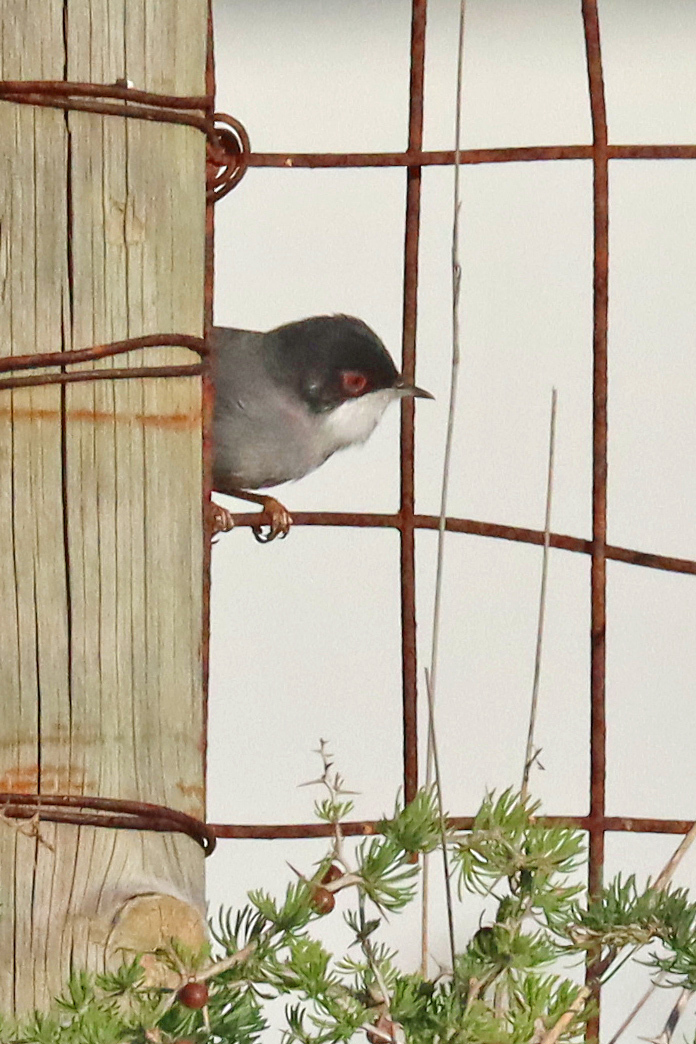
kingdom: Animalia
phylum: Chordata
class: Aves
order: Passeriformes
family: Sylviidae
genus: Curruca
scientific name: Curruca melanocephala
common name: Sardinian warbler
